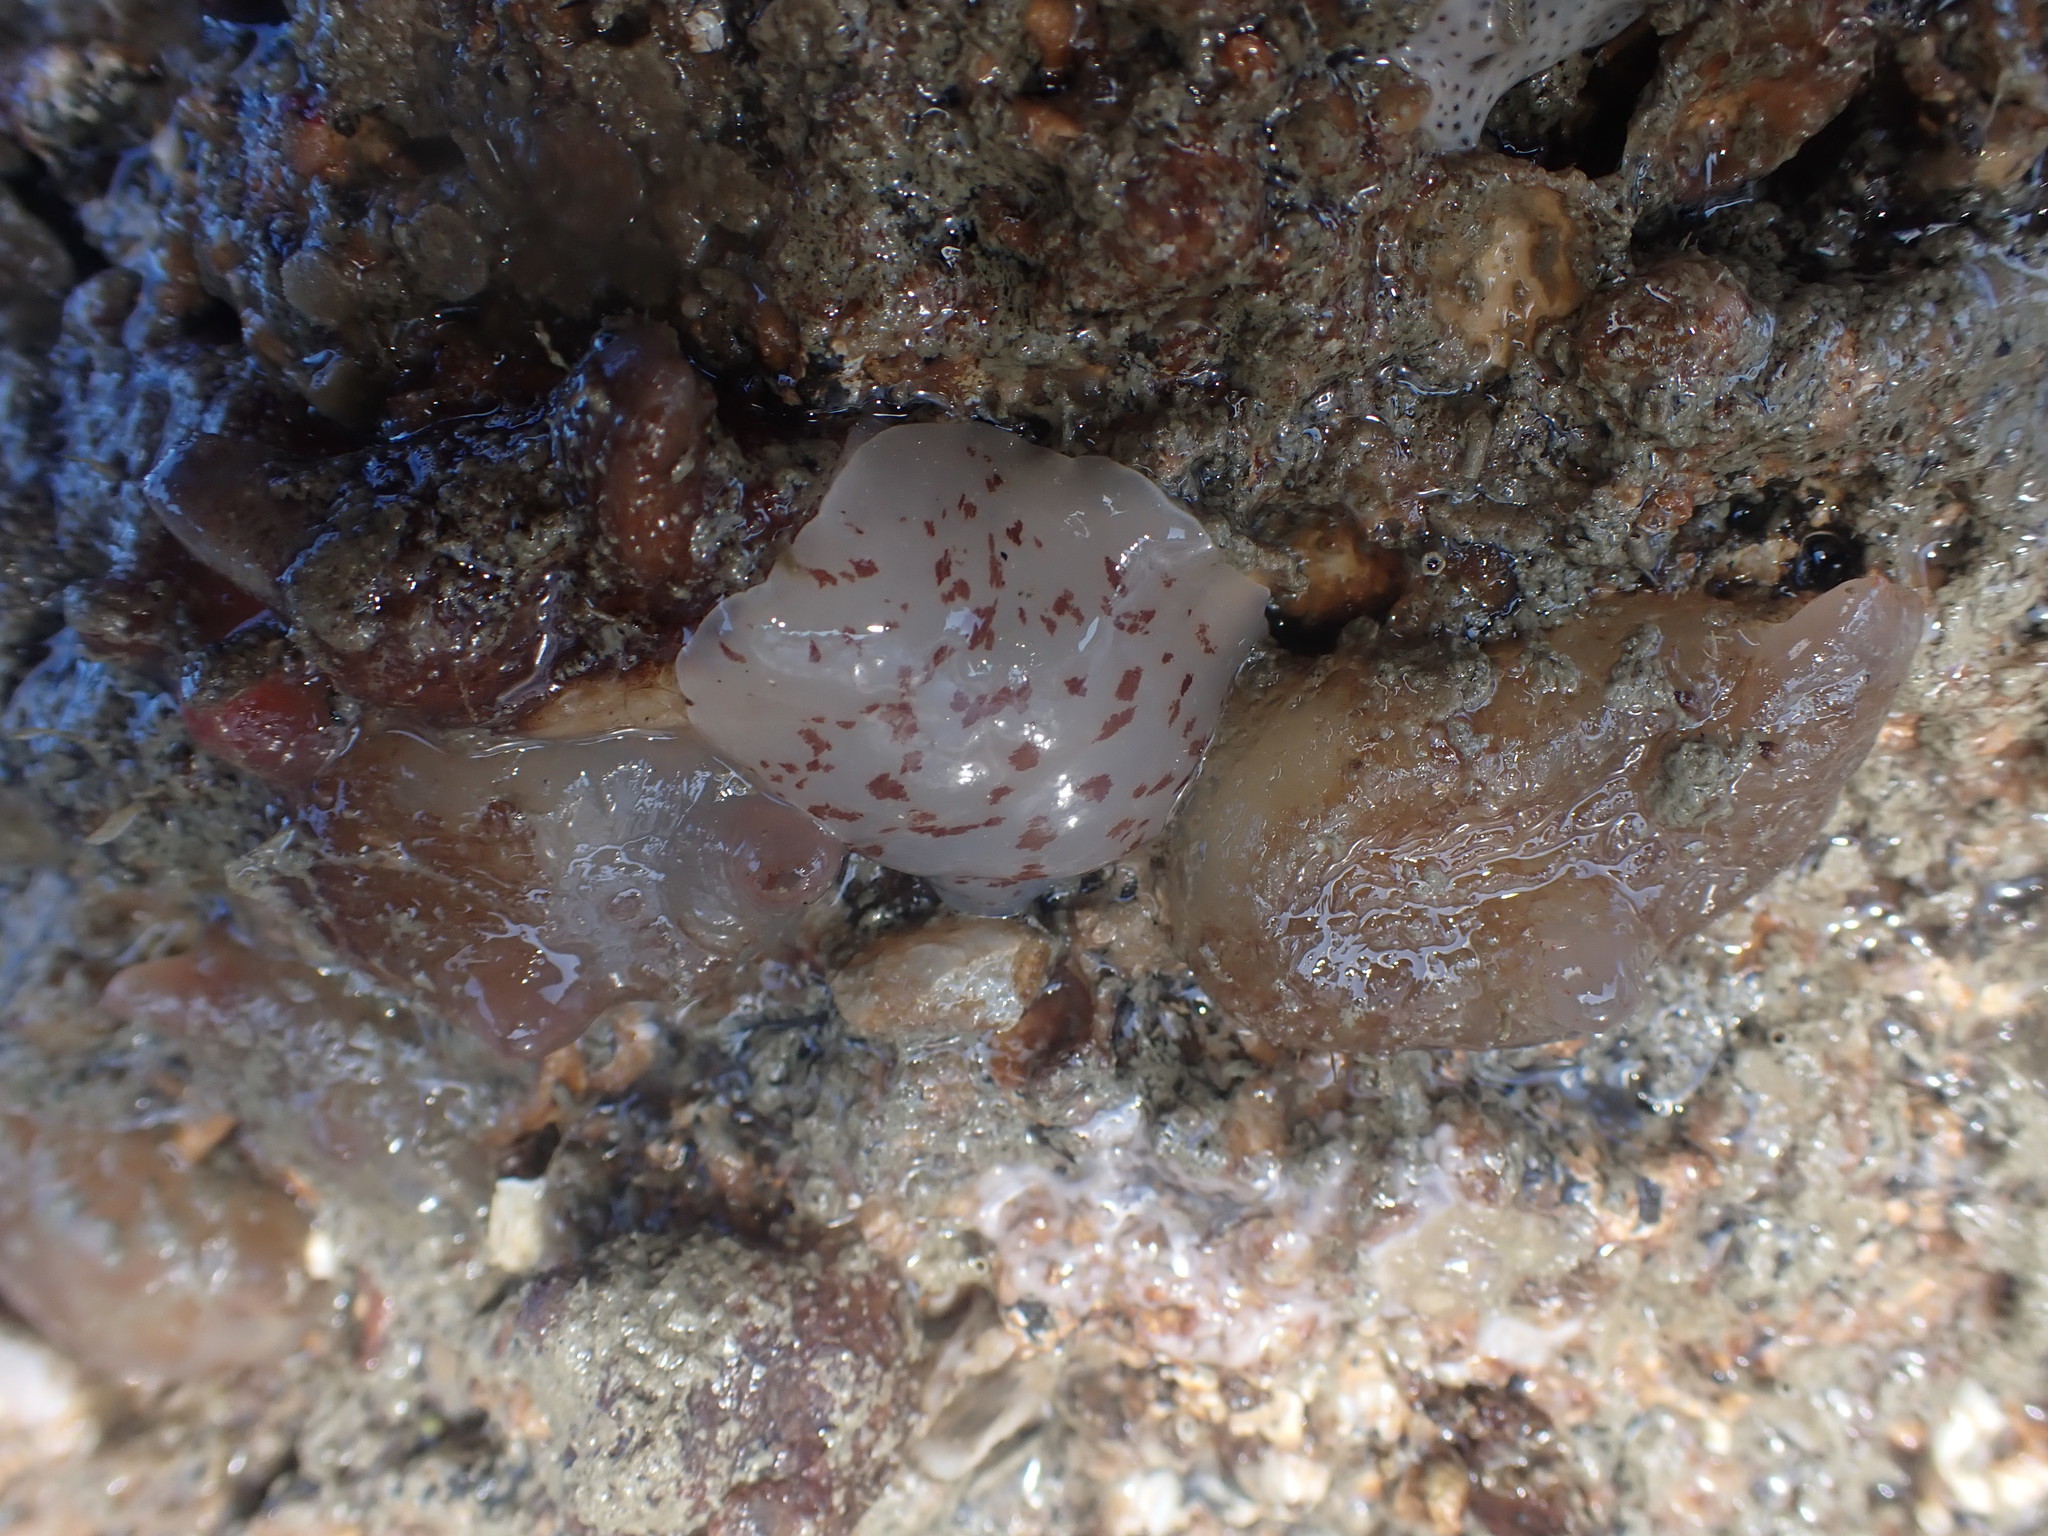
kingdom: Animalia
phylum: Mollusca
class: Gastropoda
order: Pleurobranchida
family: Pleurobranchidae
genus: Berthella
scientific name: Berthella ornata
